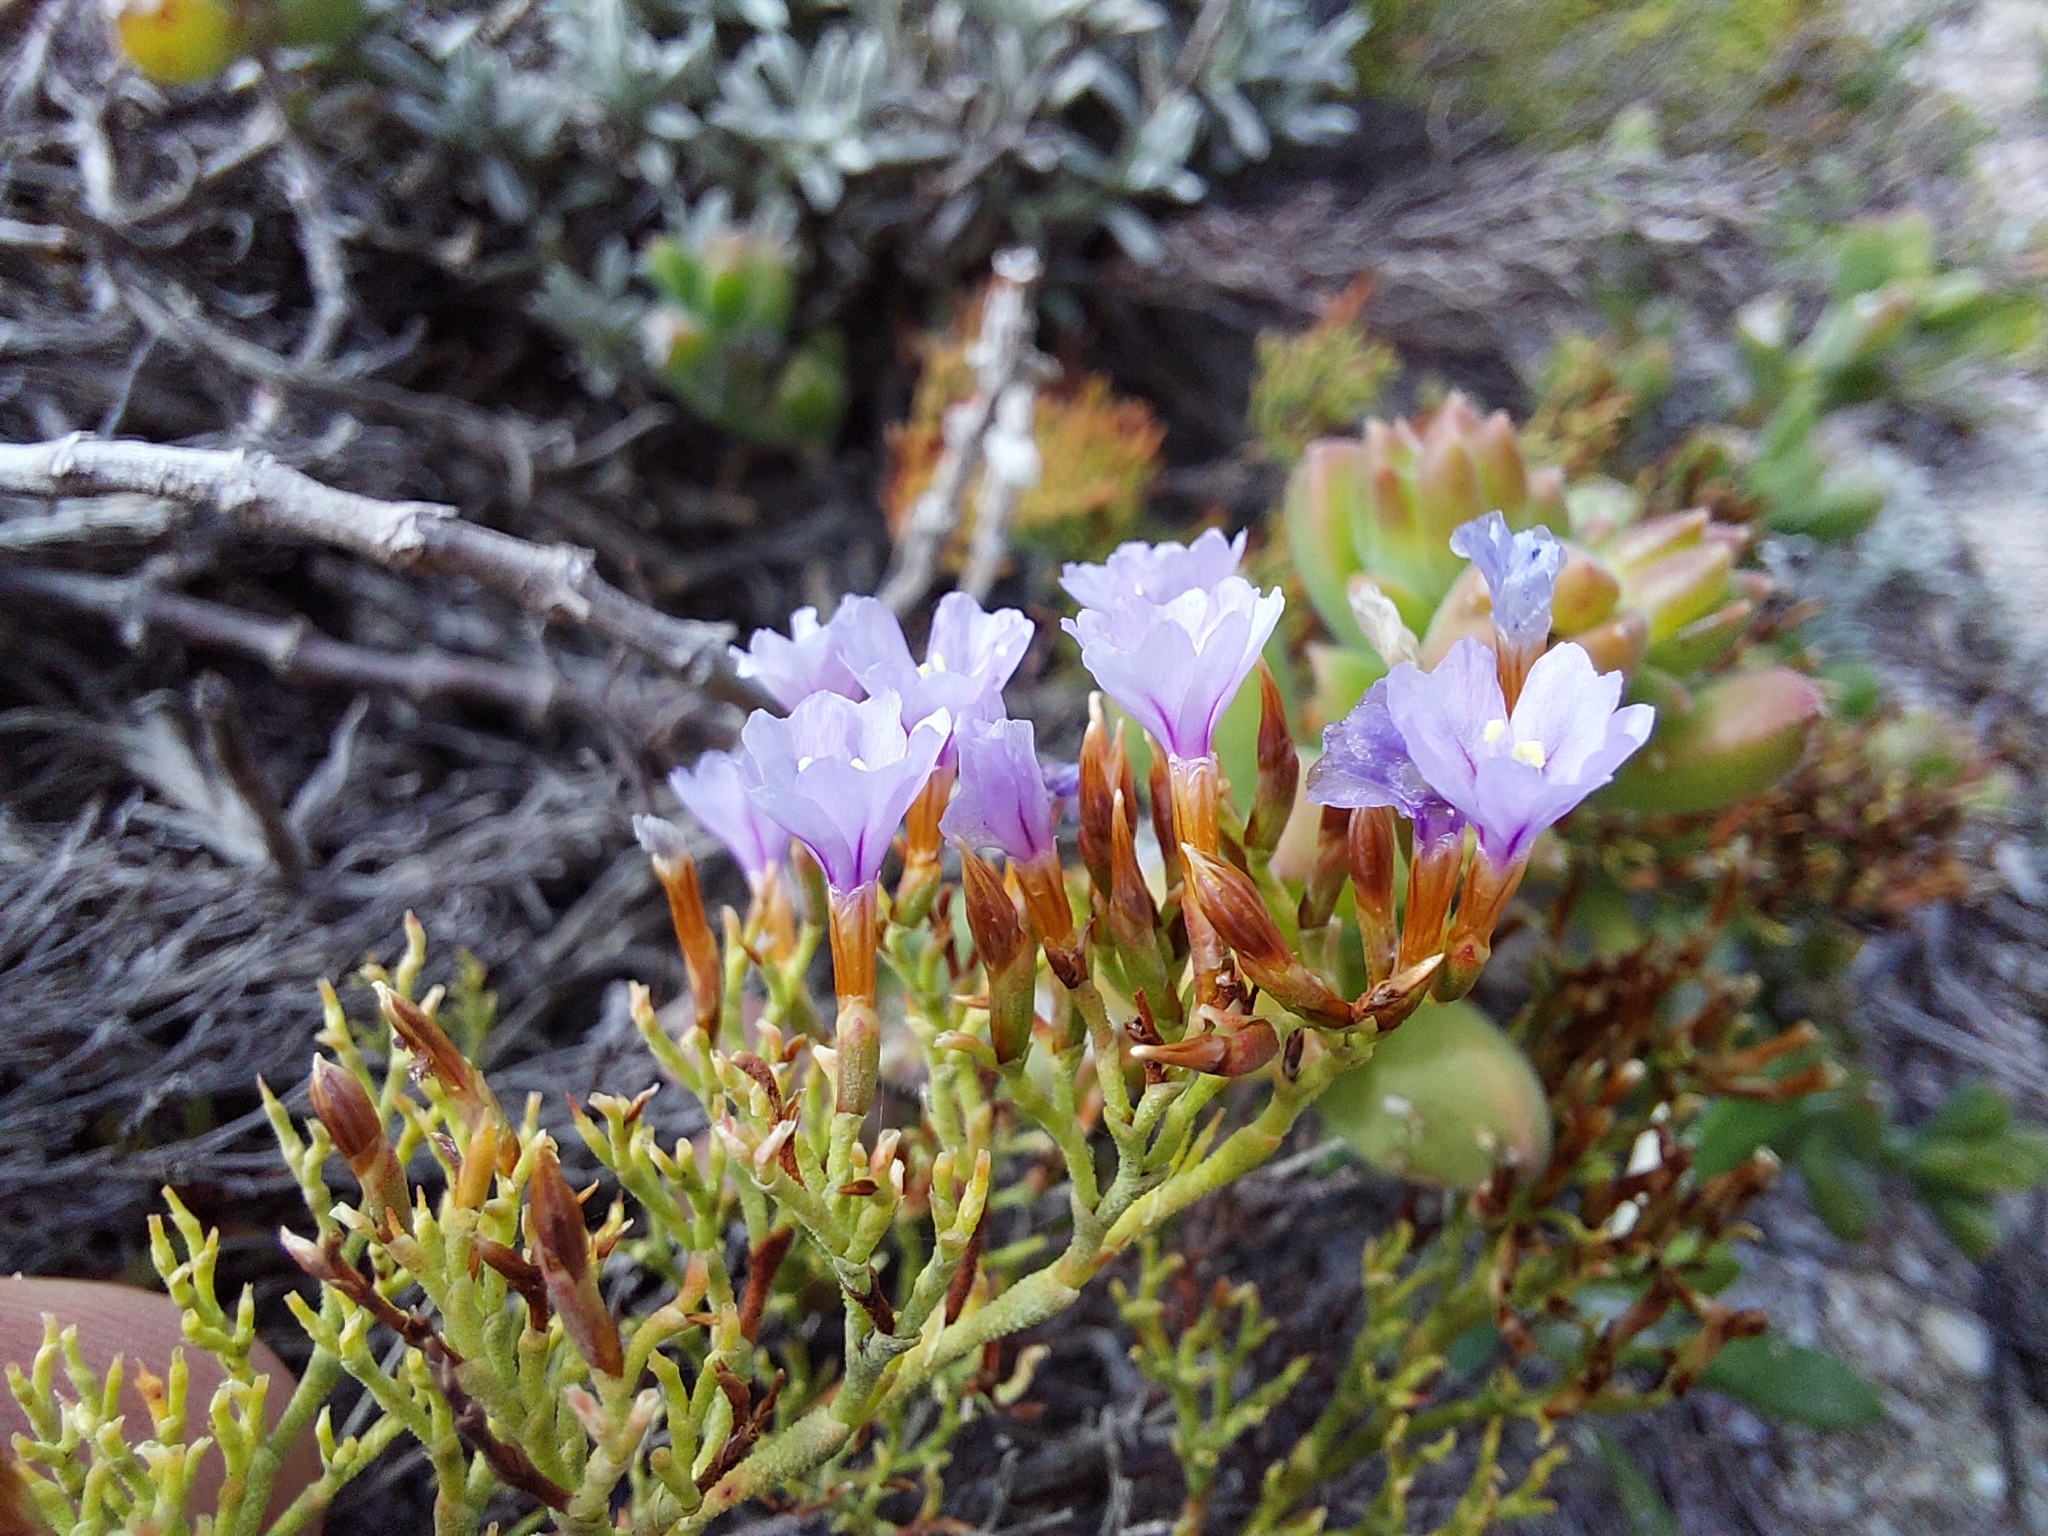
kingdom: Plantae
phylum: Tracheophyta
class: Magnoliopsida
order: Caryophyllales
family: Plumbaginaceae
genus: Limonium
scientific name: Limonium scabrum
